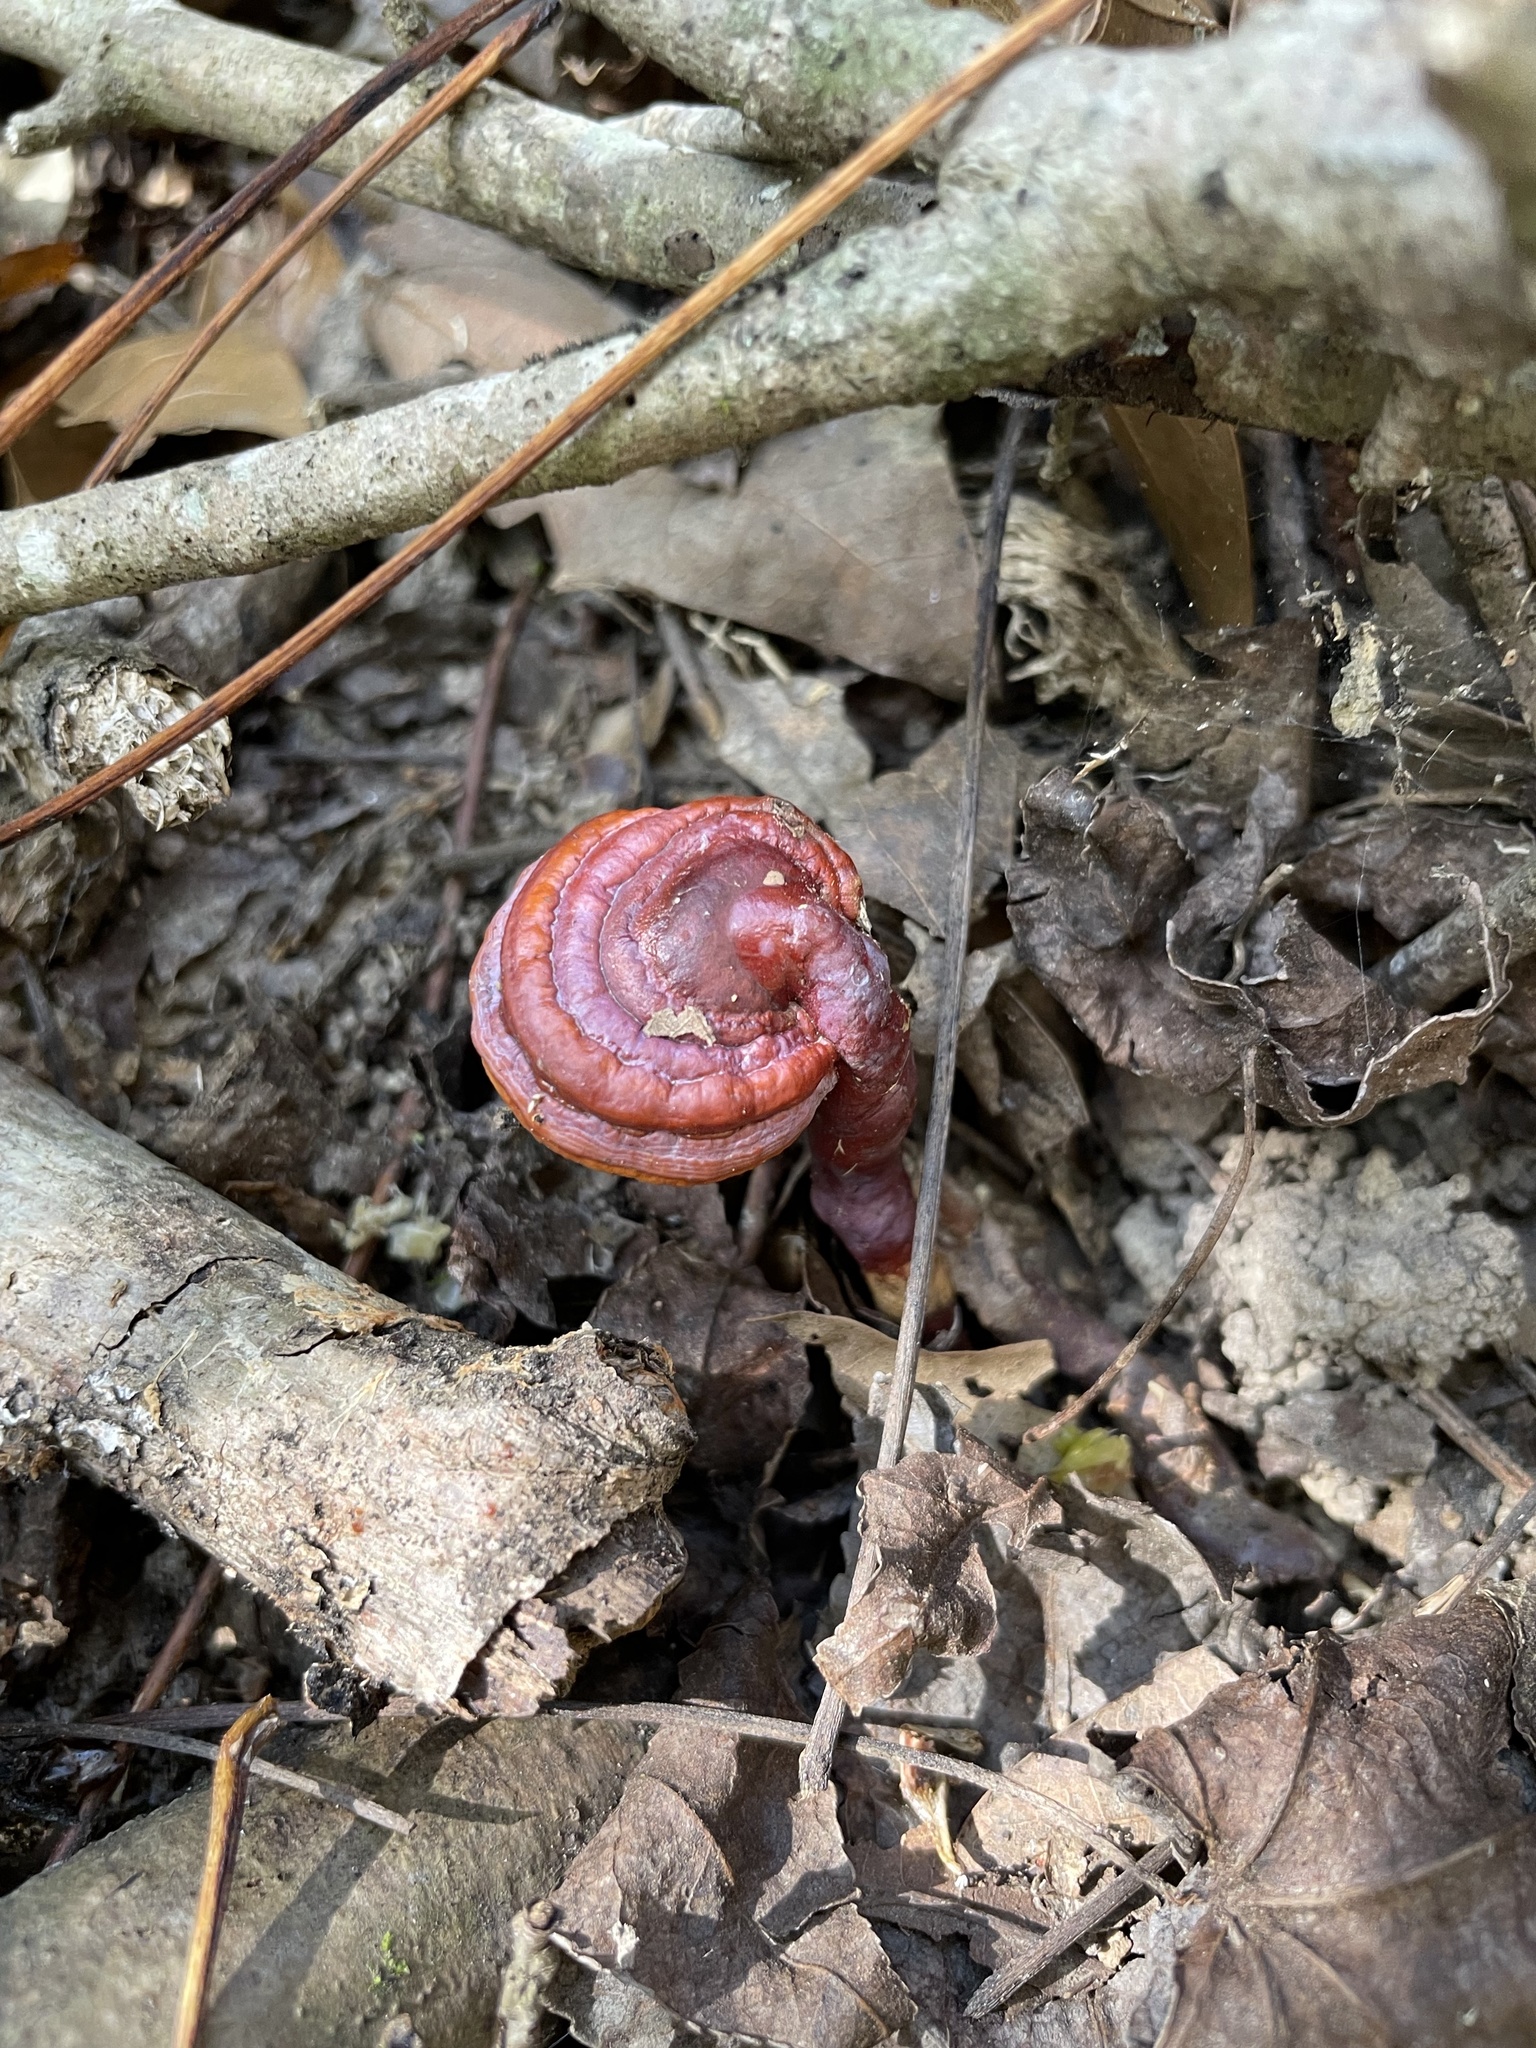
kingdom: Fungi
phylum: Basidiomycota
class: Agaricomycetes
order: Polyporales
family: Polyporaceae
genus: Ganoderma
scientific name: Ganoderma curtisii
